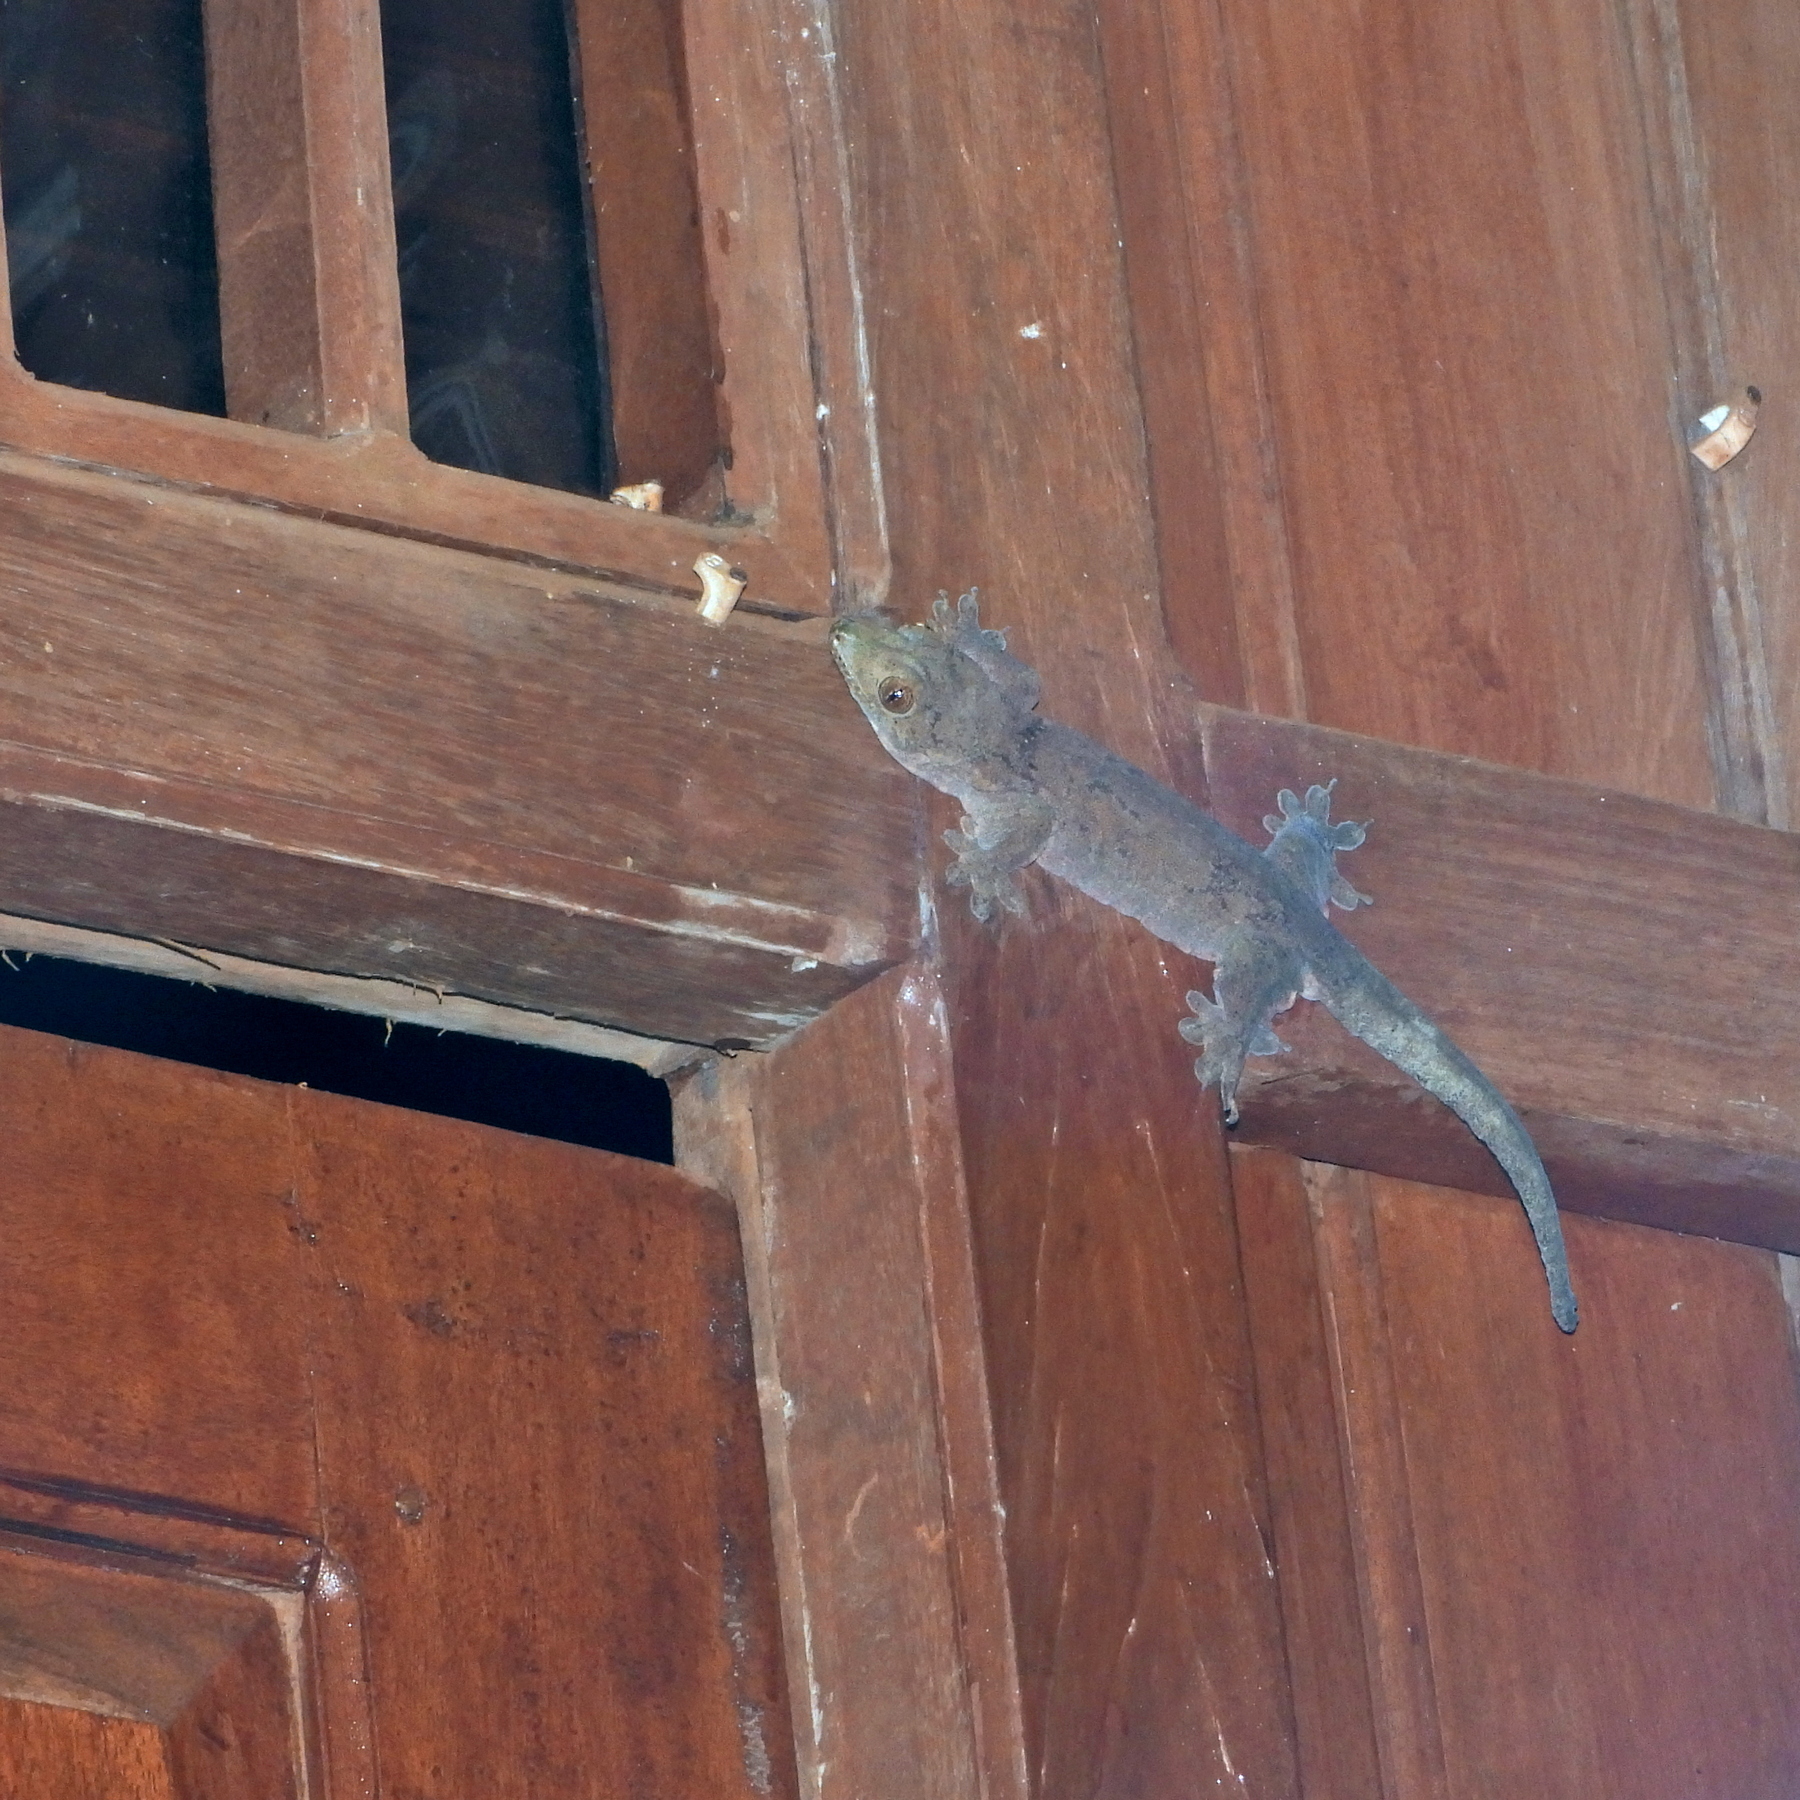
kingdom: Animalia
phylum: Chordata
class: Squamata
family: Gekkonidae
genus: Gehyra
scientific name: Gehyra marginata
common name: Ternate dtella
